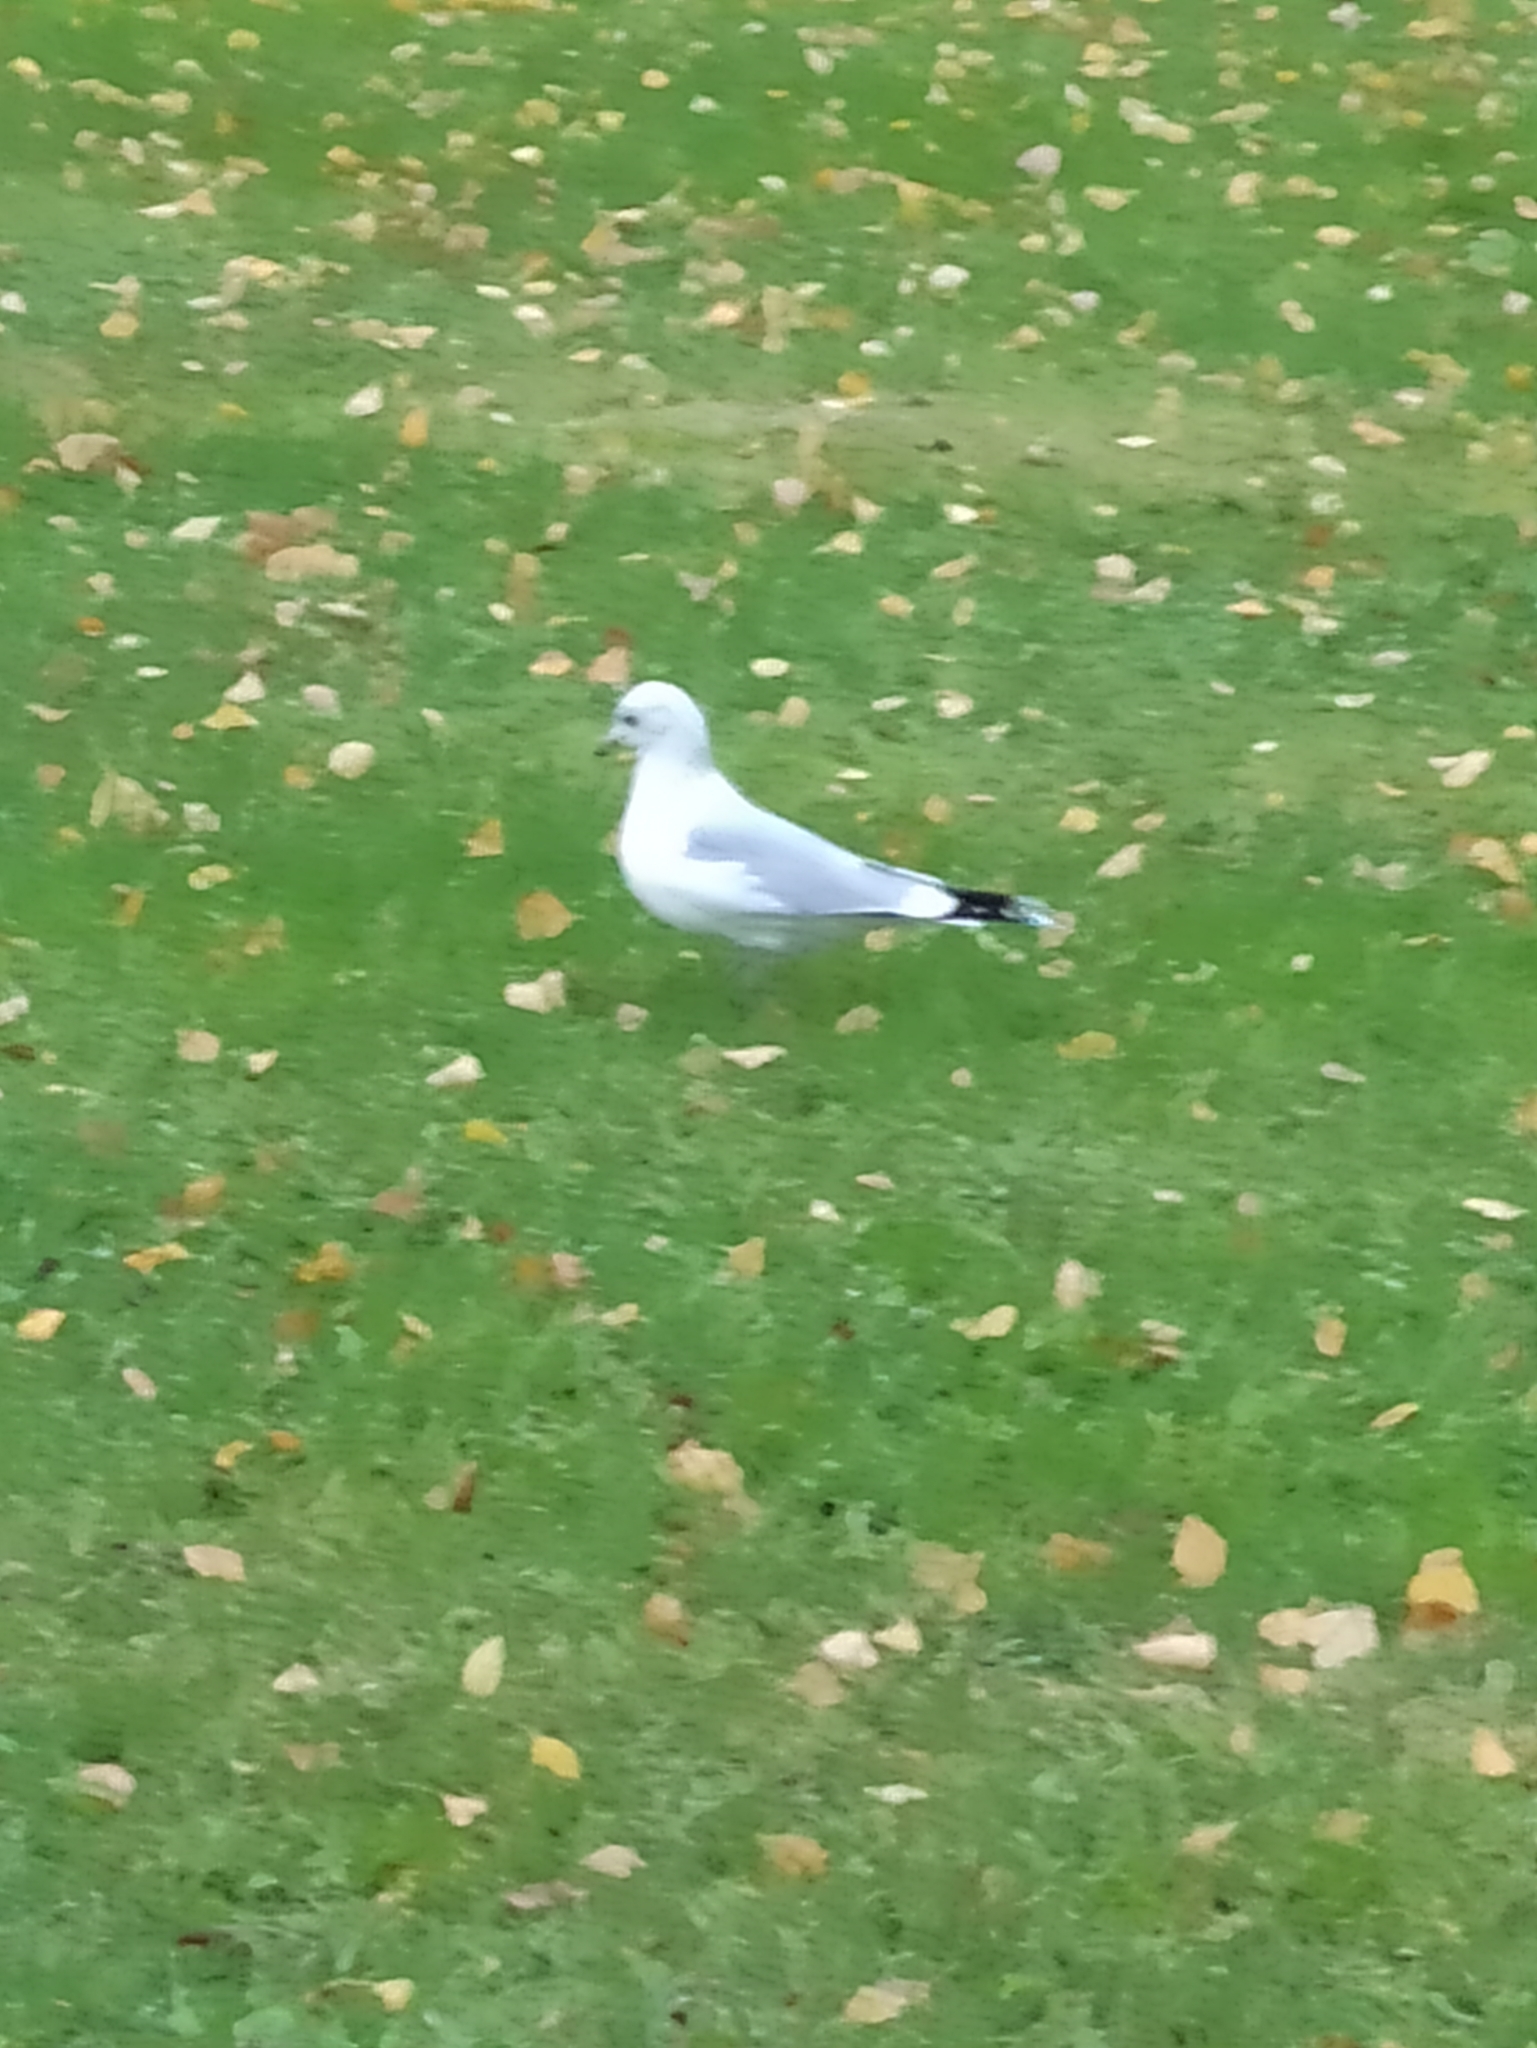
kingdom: Animalia
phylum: Chordata
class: Aves
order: Charadriiformes
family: Laridae
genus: Larus
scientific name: Larus canus
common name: Mew gull
